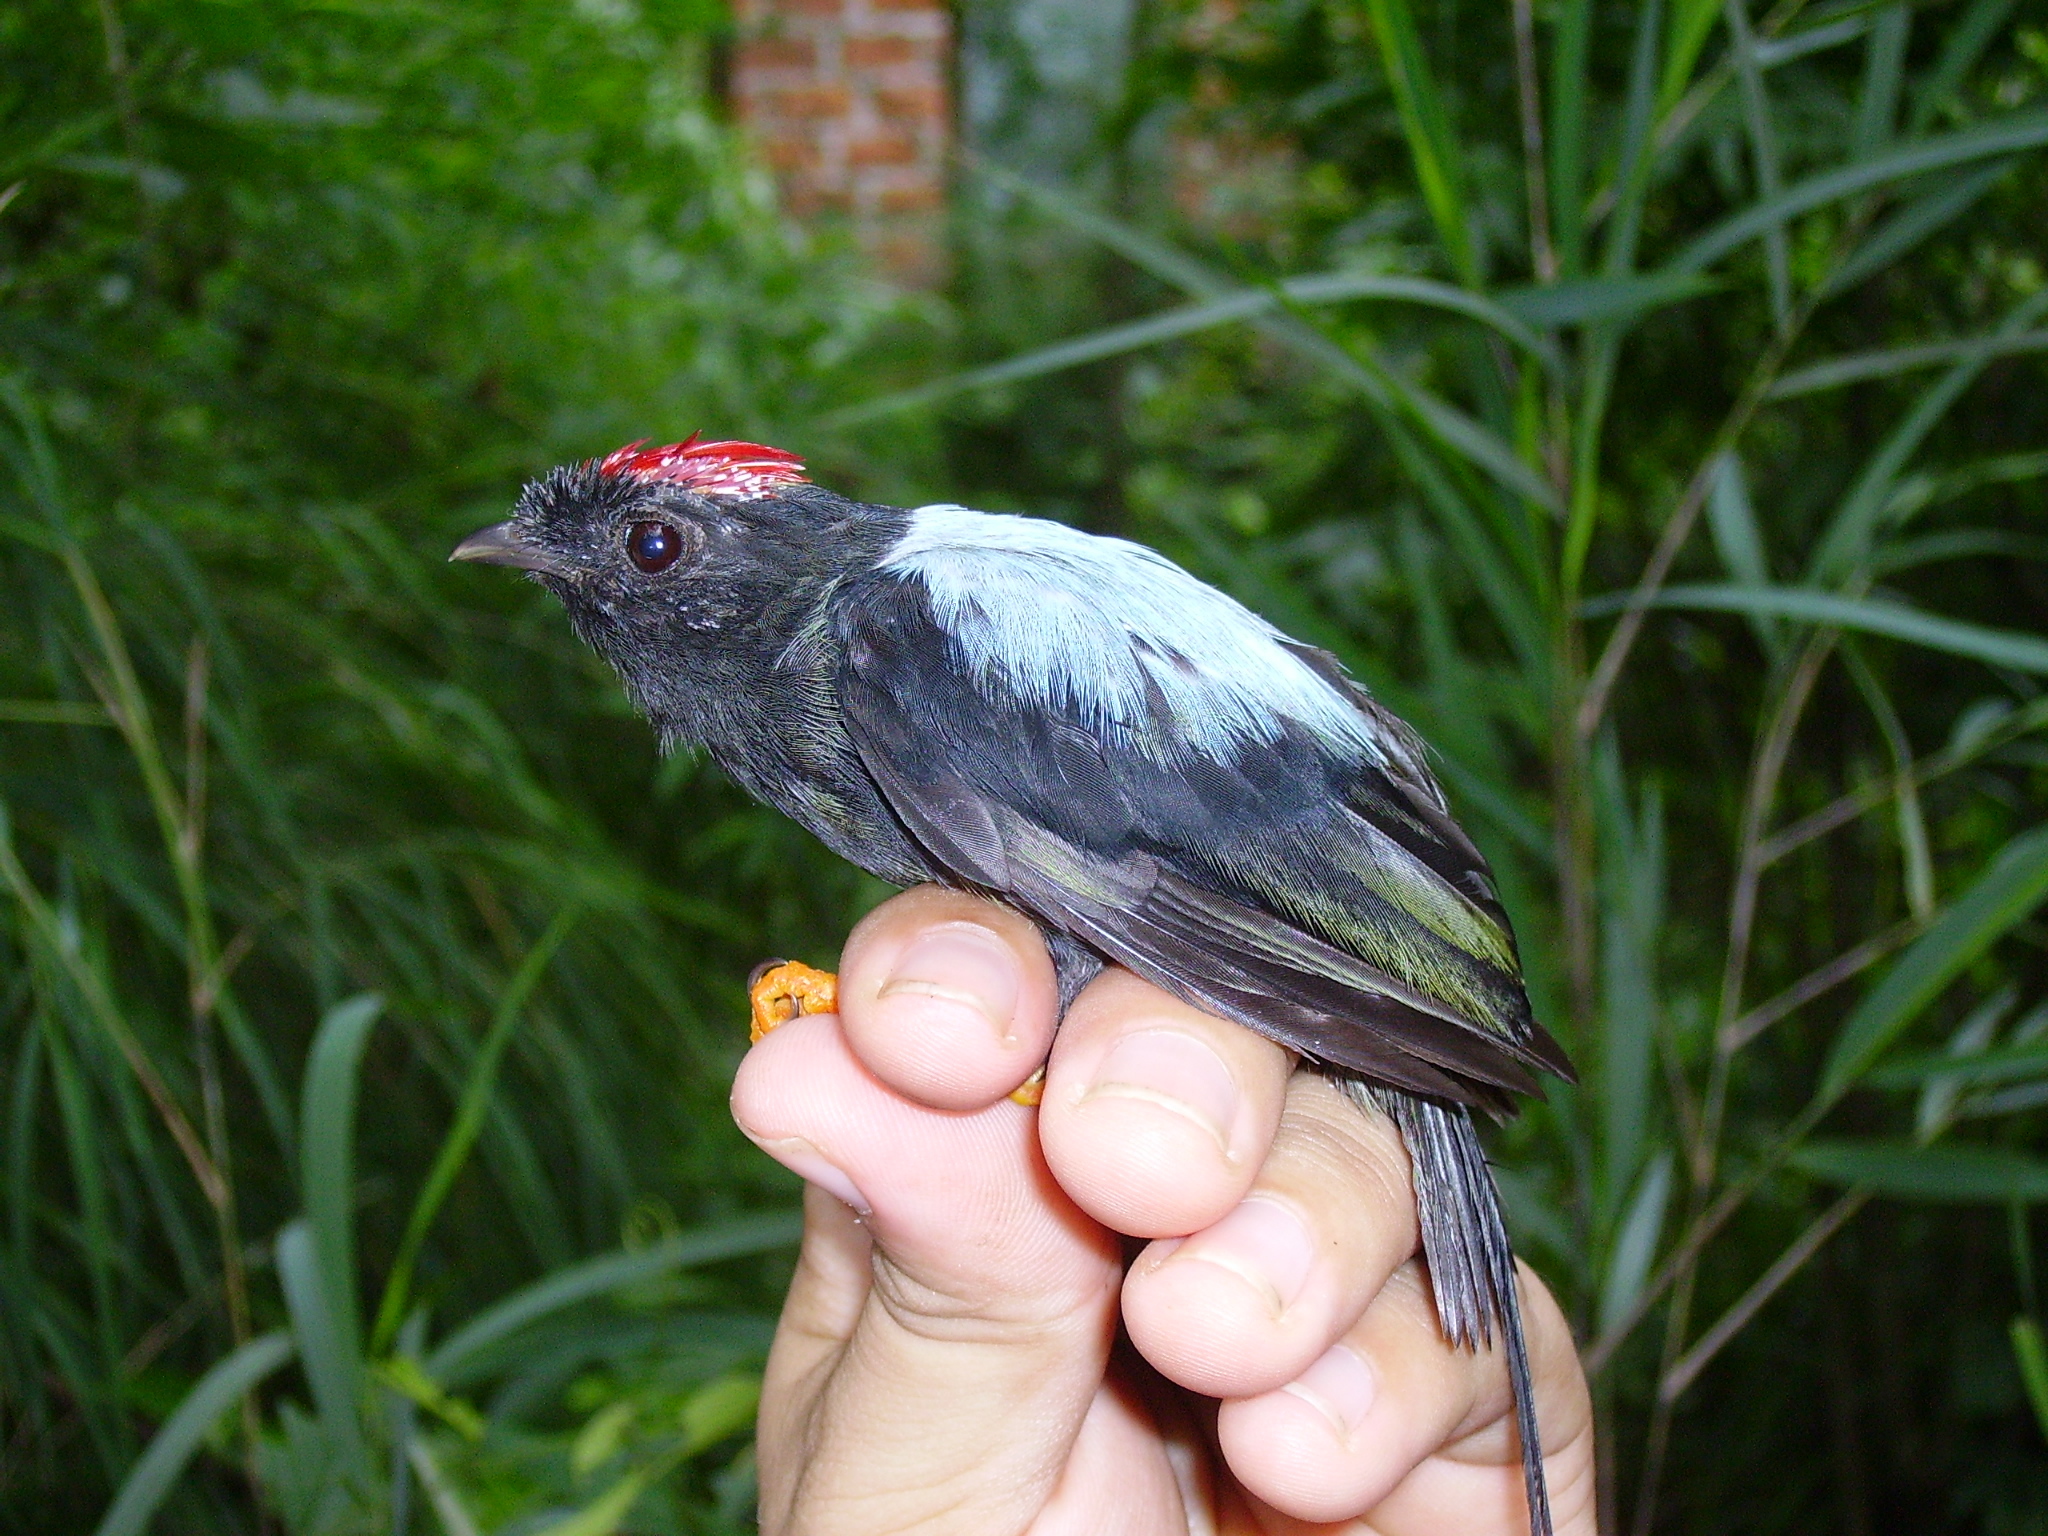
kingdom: Animalia
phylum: Chordata
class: Aves
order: Passeriformes
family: Pipridae
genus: Chiroxiphia
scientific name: Chiroxiphia linearis
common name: Long-tailed manakin
